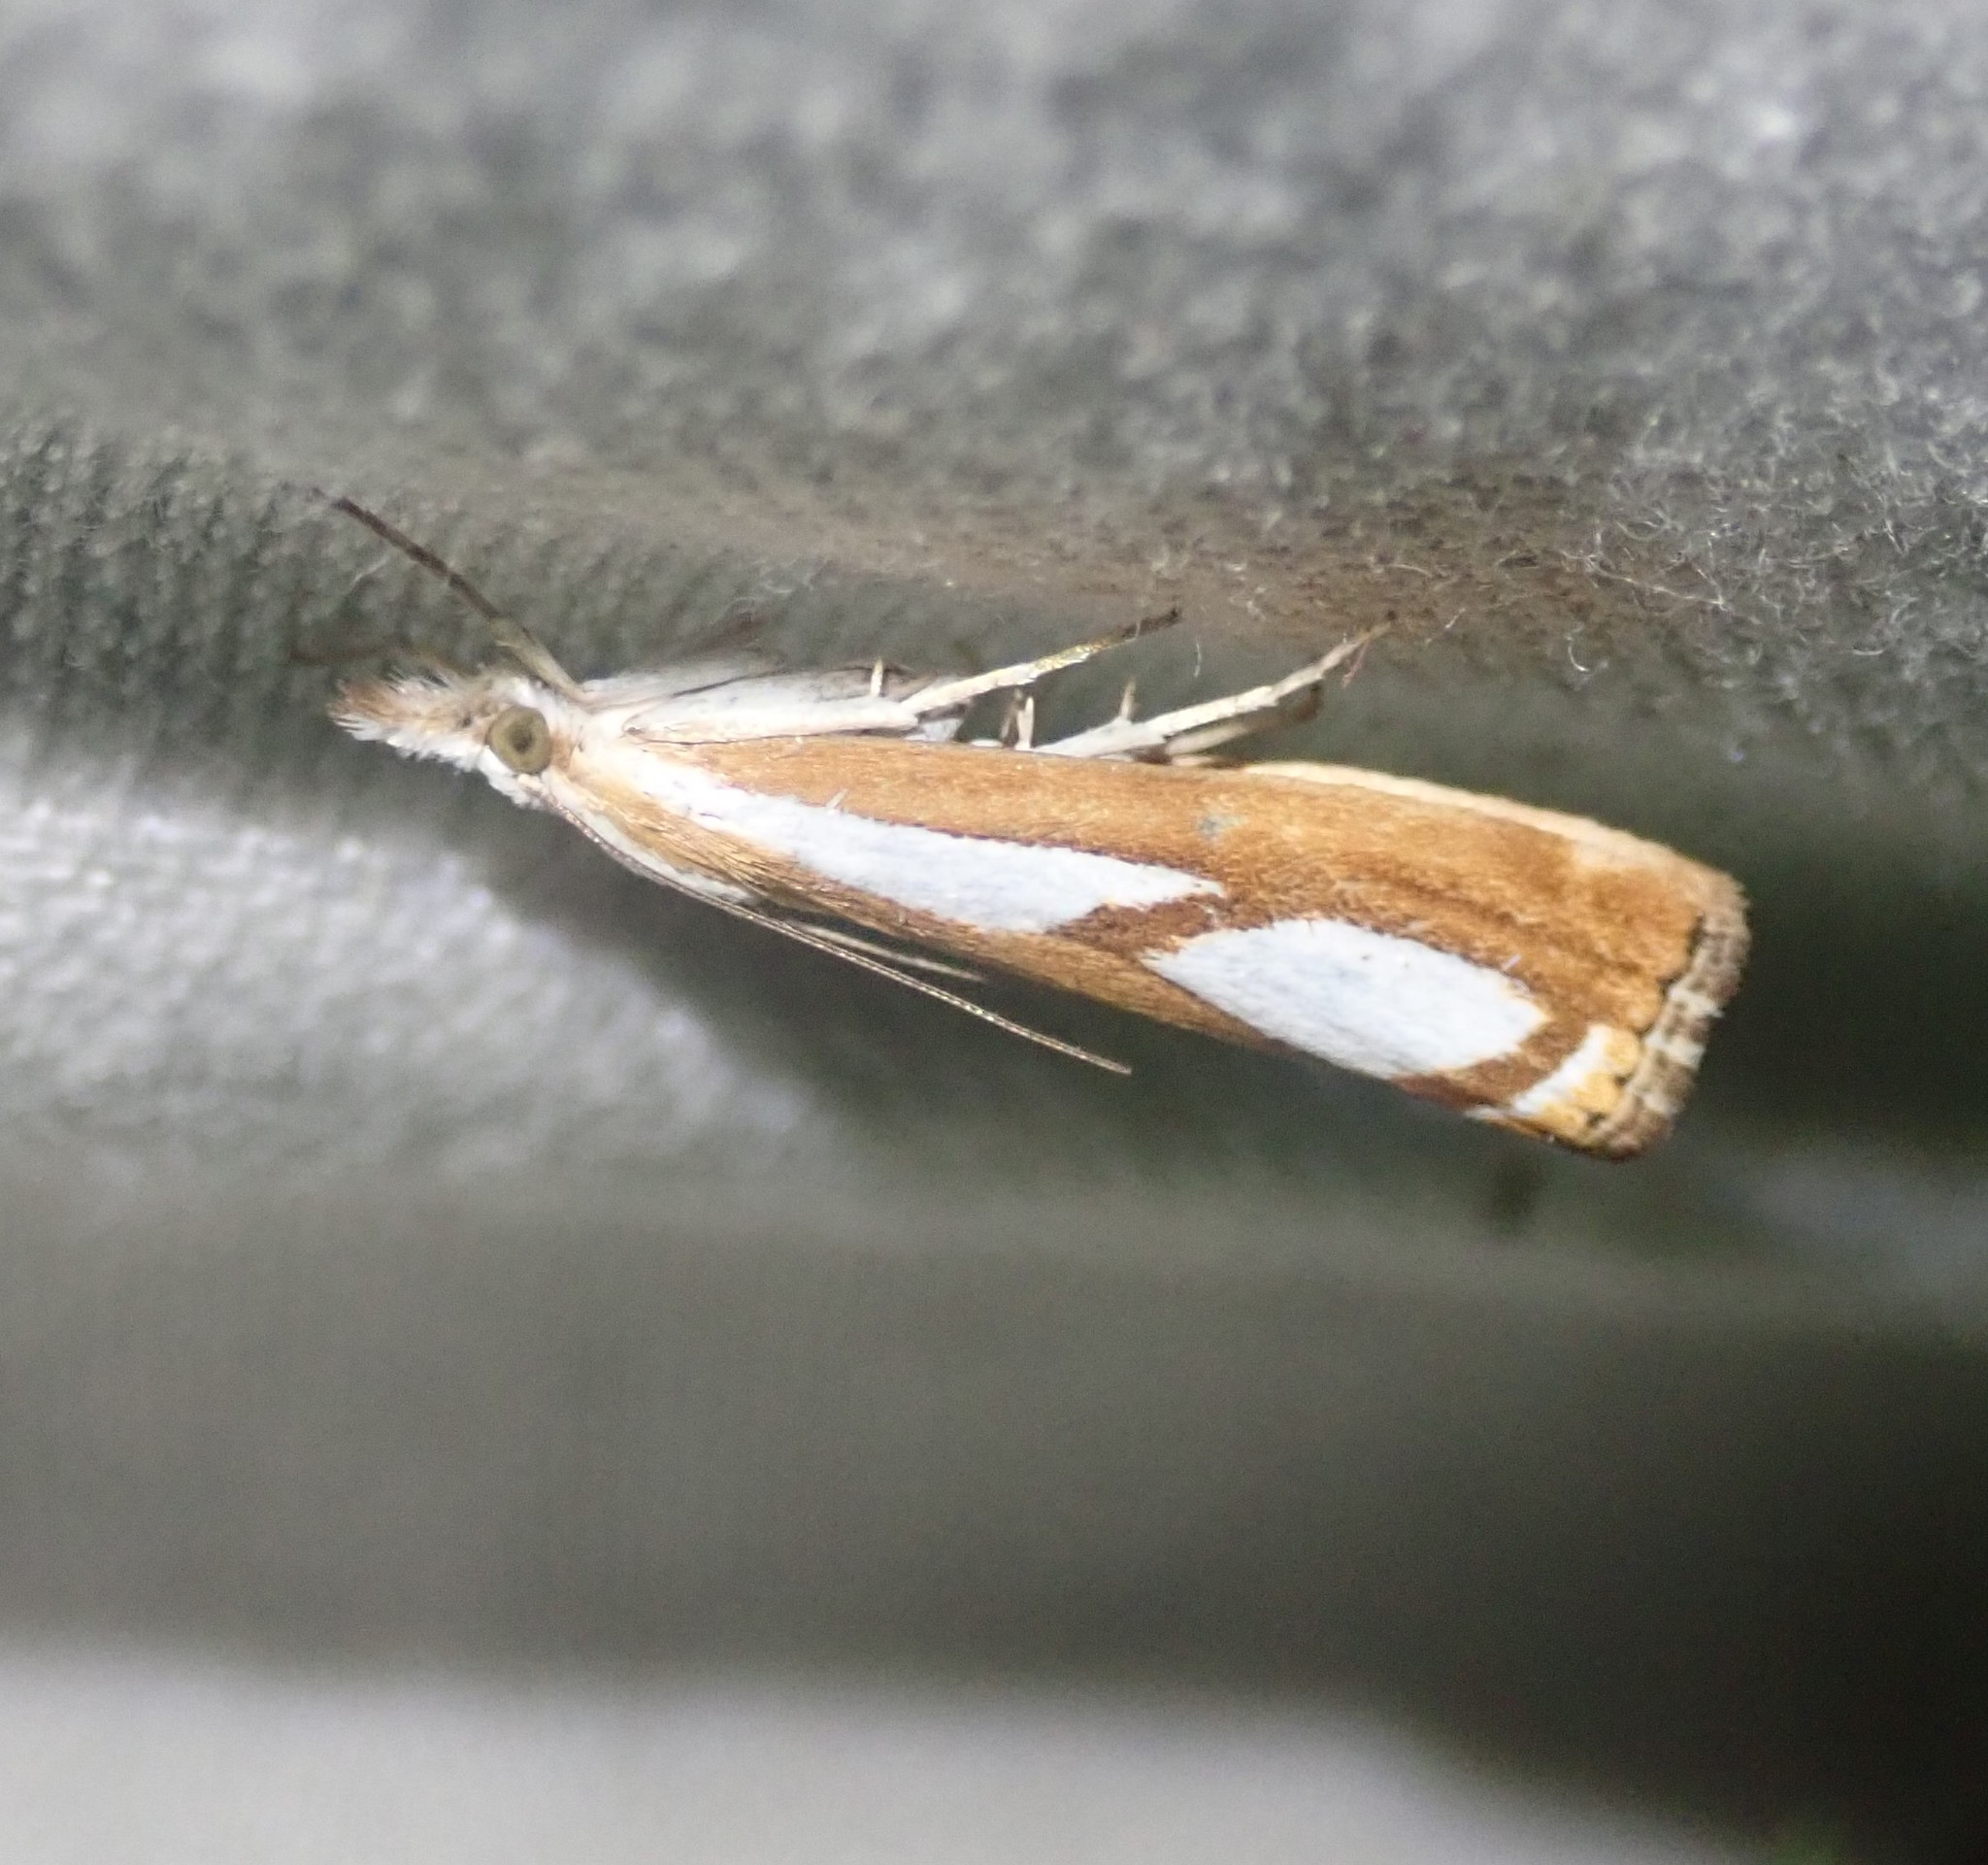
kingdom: Animalia
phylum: Arthropoda
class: Insecta
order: Lepidoptera
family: Crambidae
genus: Catoptria
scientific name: Catoptria
